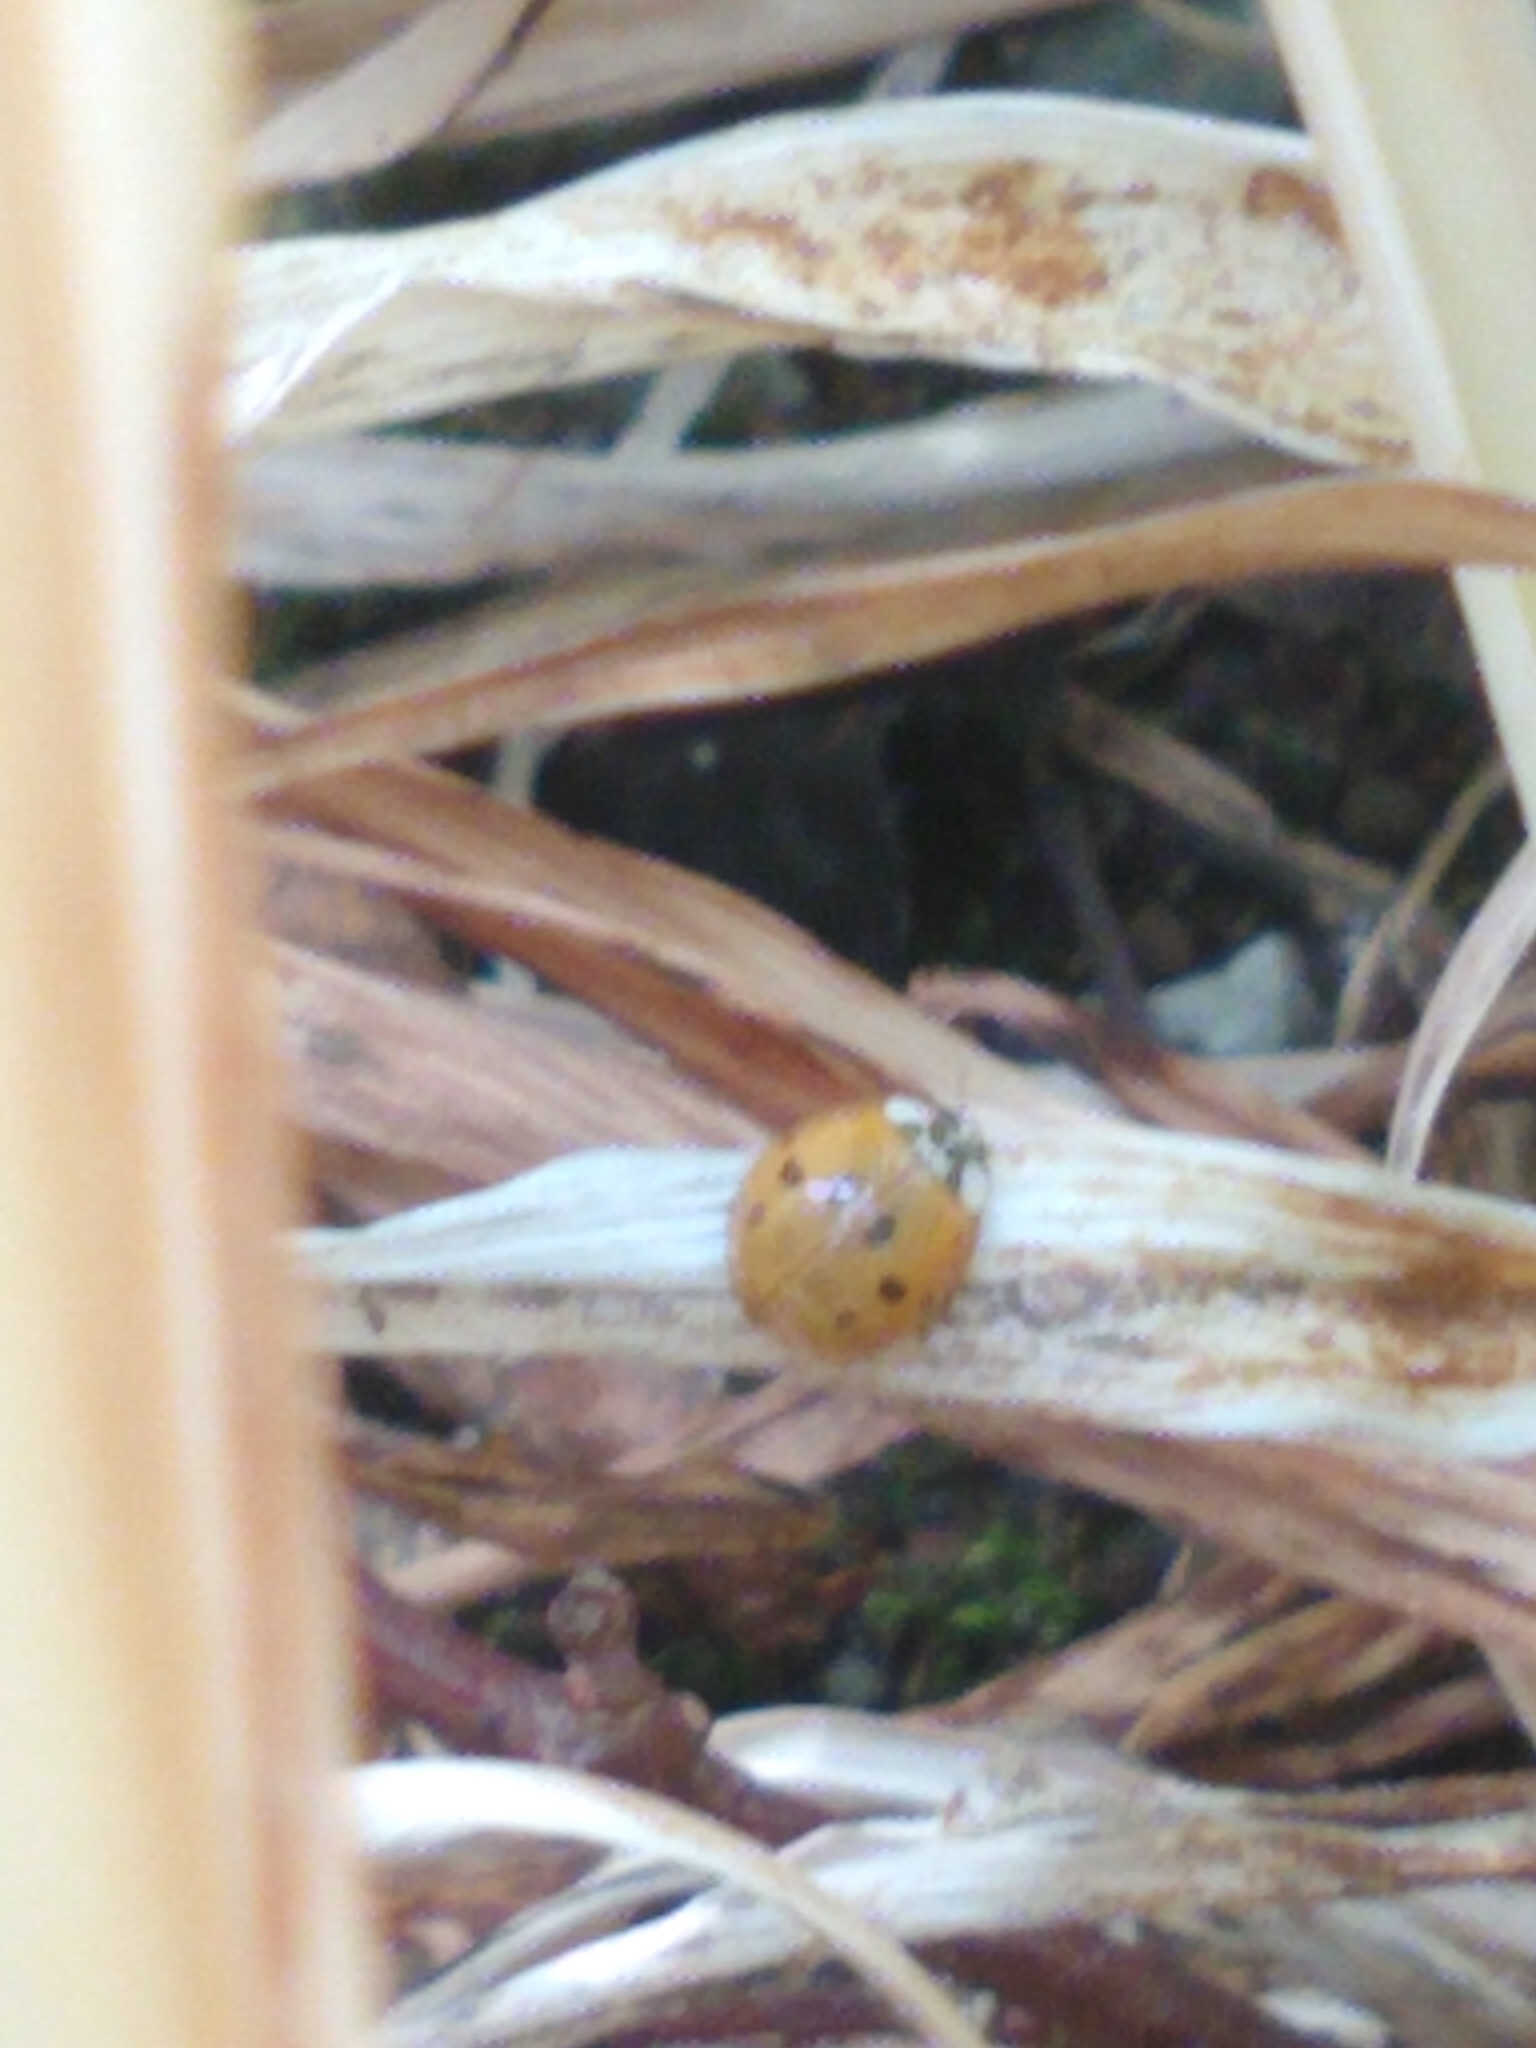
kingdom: Animalia
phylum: Arthropoda
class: Insecta
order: Coleoptera
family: Coccinellidae
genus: Harmonia
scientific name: Harmonia axyridis
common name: Harlequin ladybird
